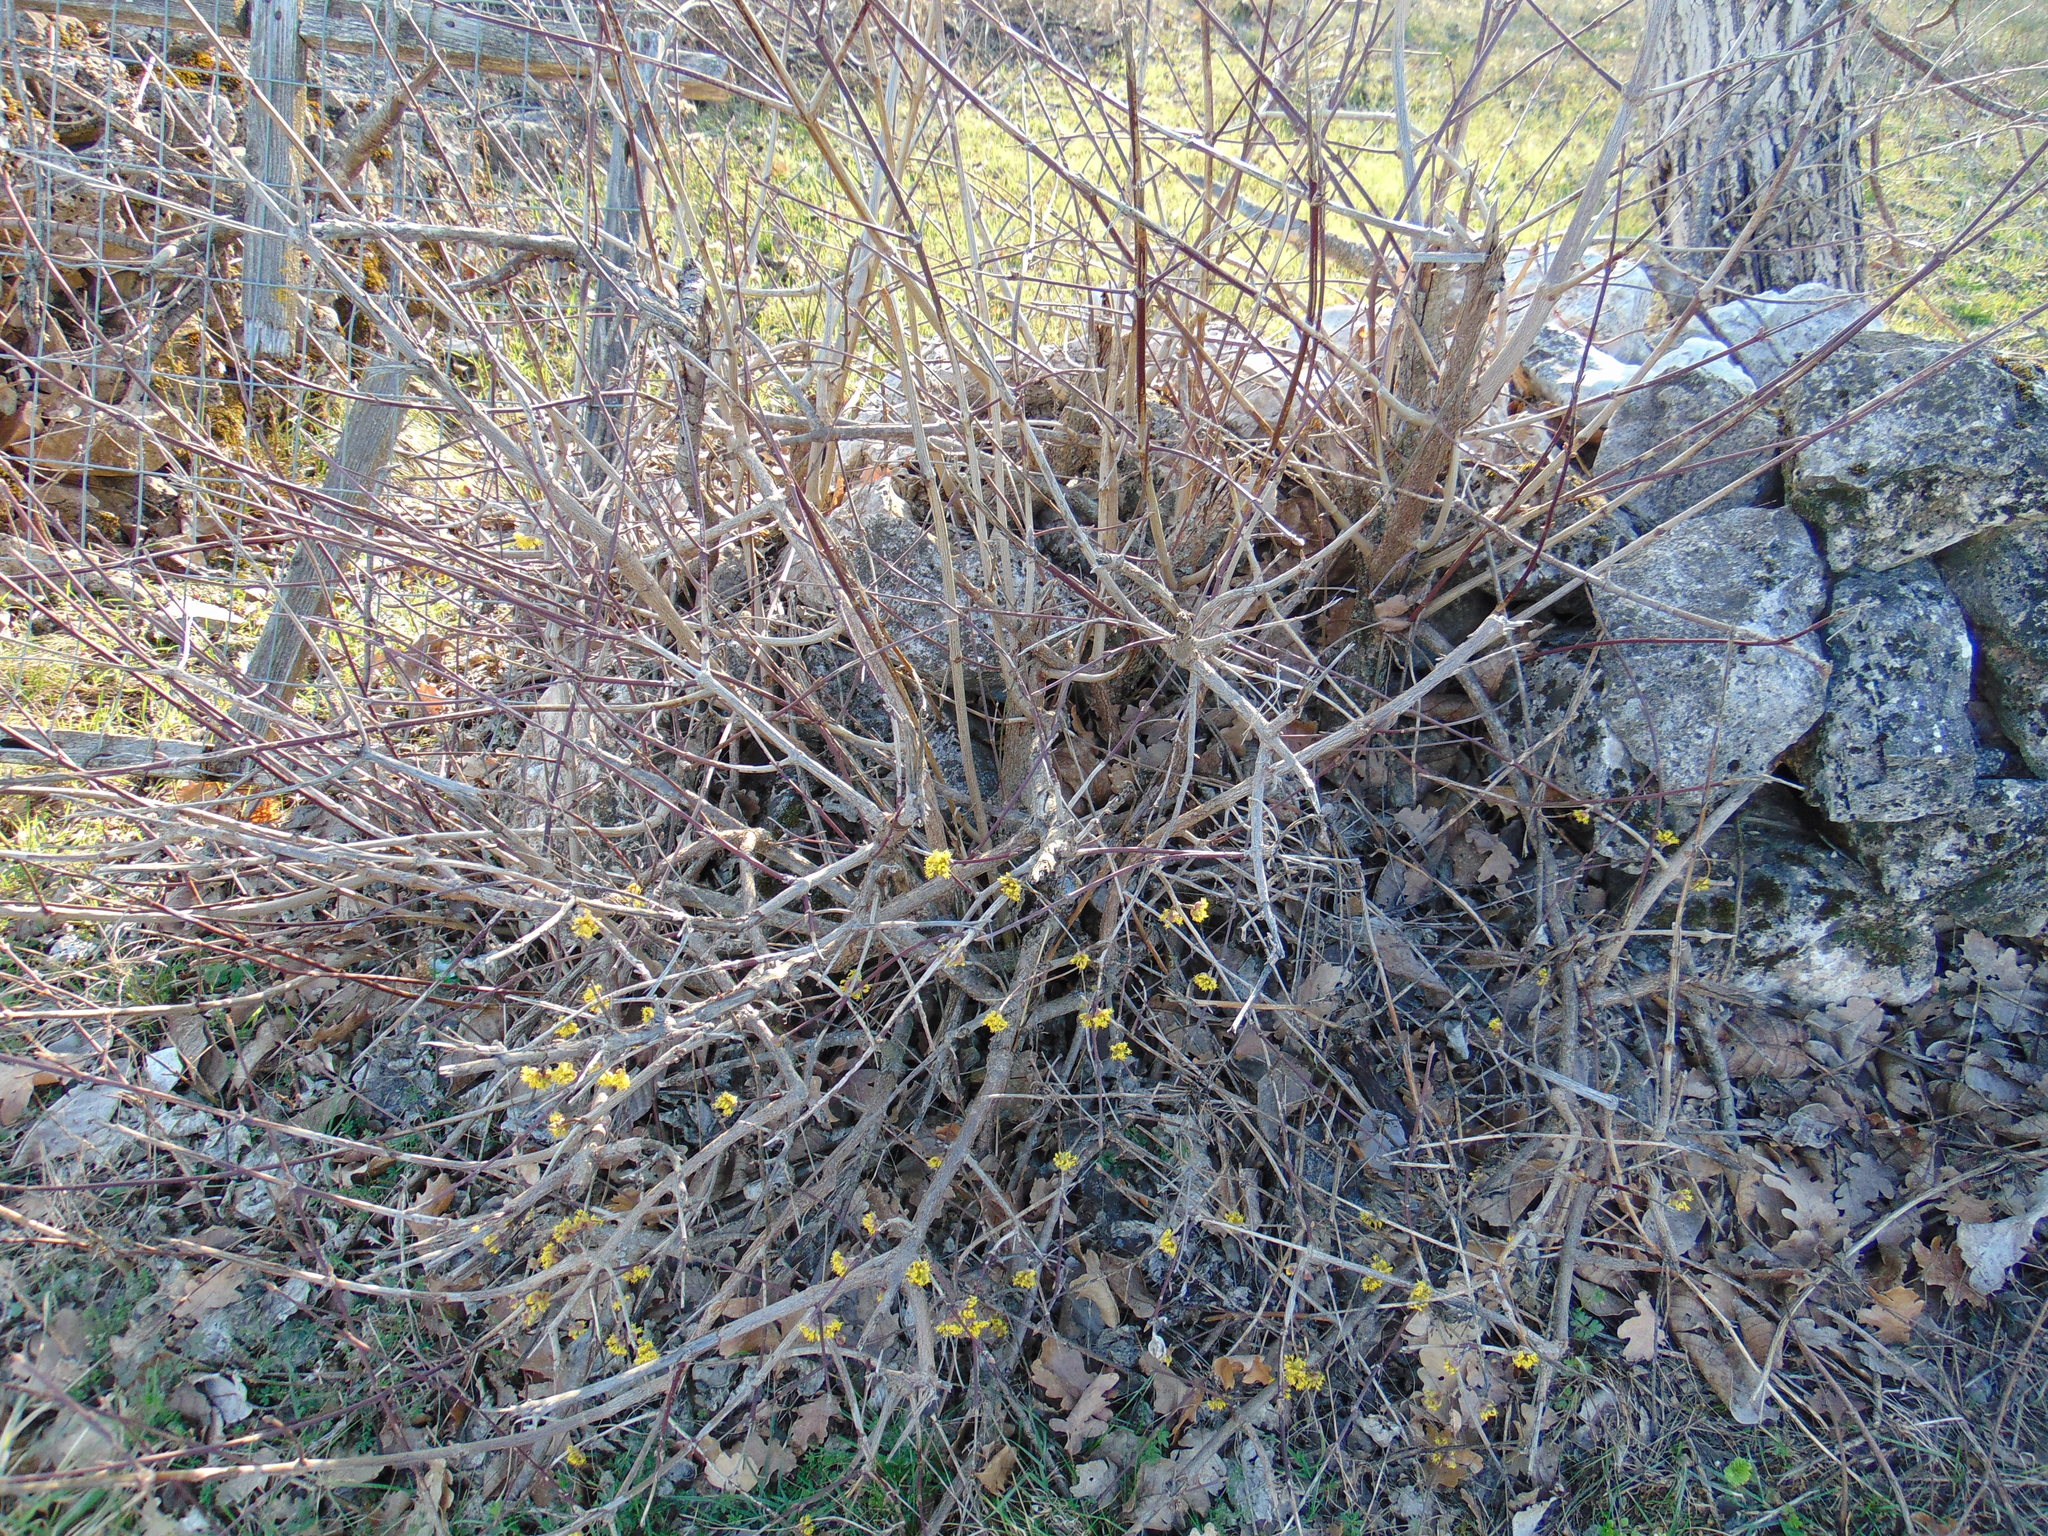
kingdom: Plantae
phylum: Tracheophyta
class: Magnoliopsida
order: Cornales
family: Cornaceae
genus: Cornus
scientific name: Cornus mas
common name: Cornelian-cherry
